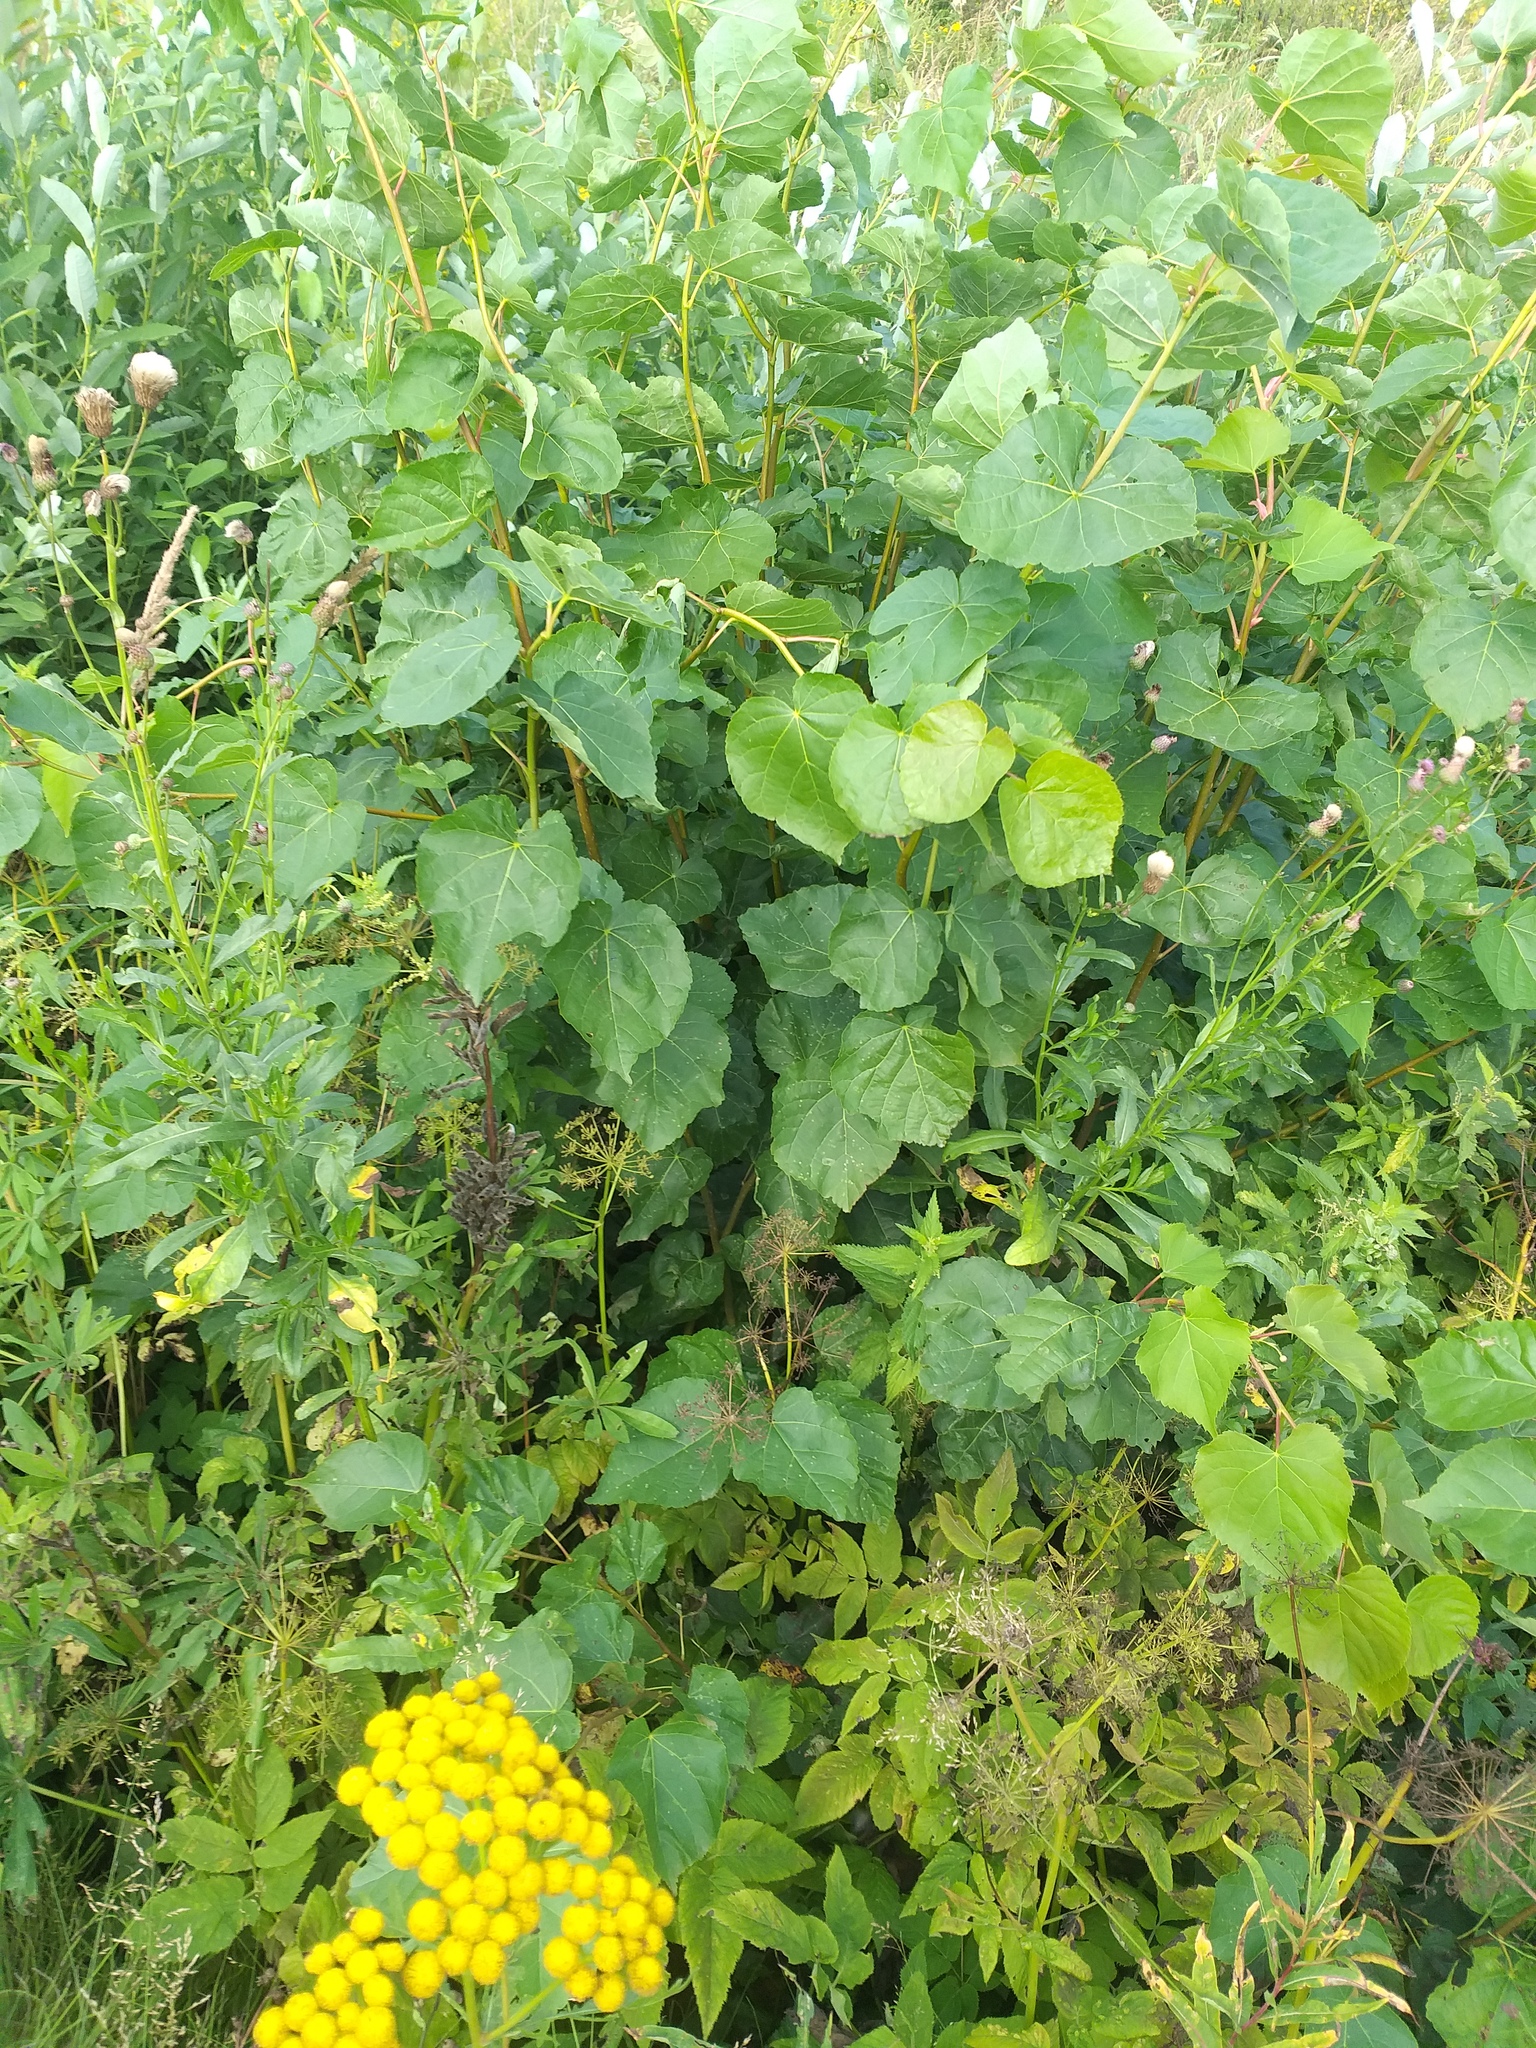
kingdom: Plantae
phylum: Tracheophyta
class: Magnoliopsida
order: Malvales
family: Malvaceae
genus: Tilia
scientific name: Tilia cordata
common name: Small-leaved lime
